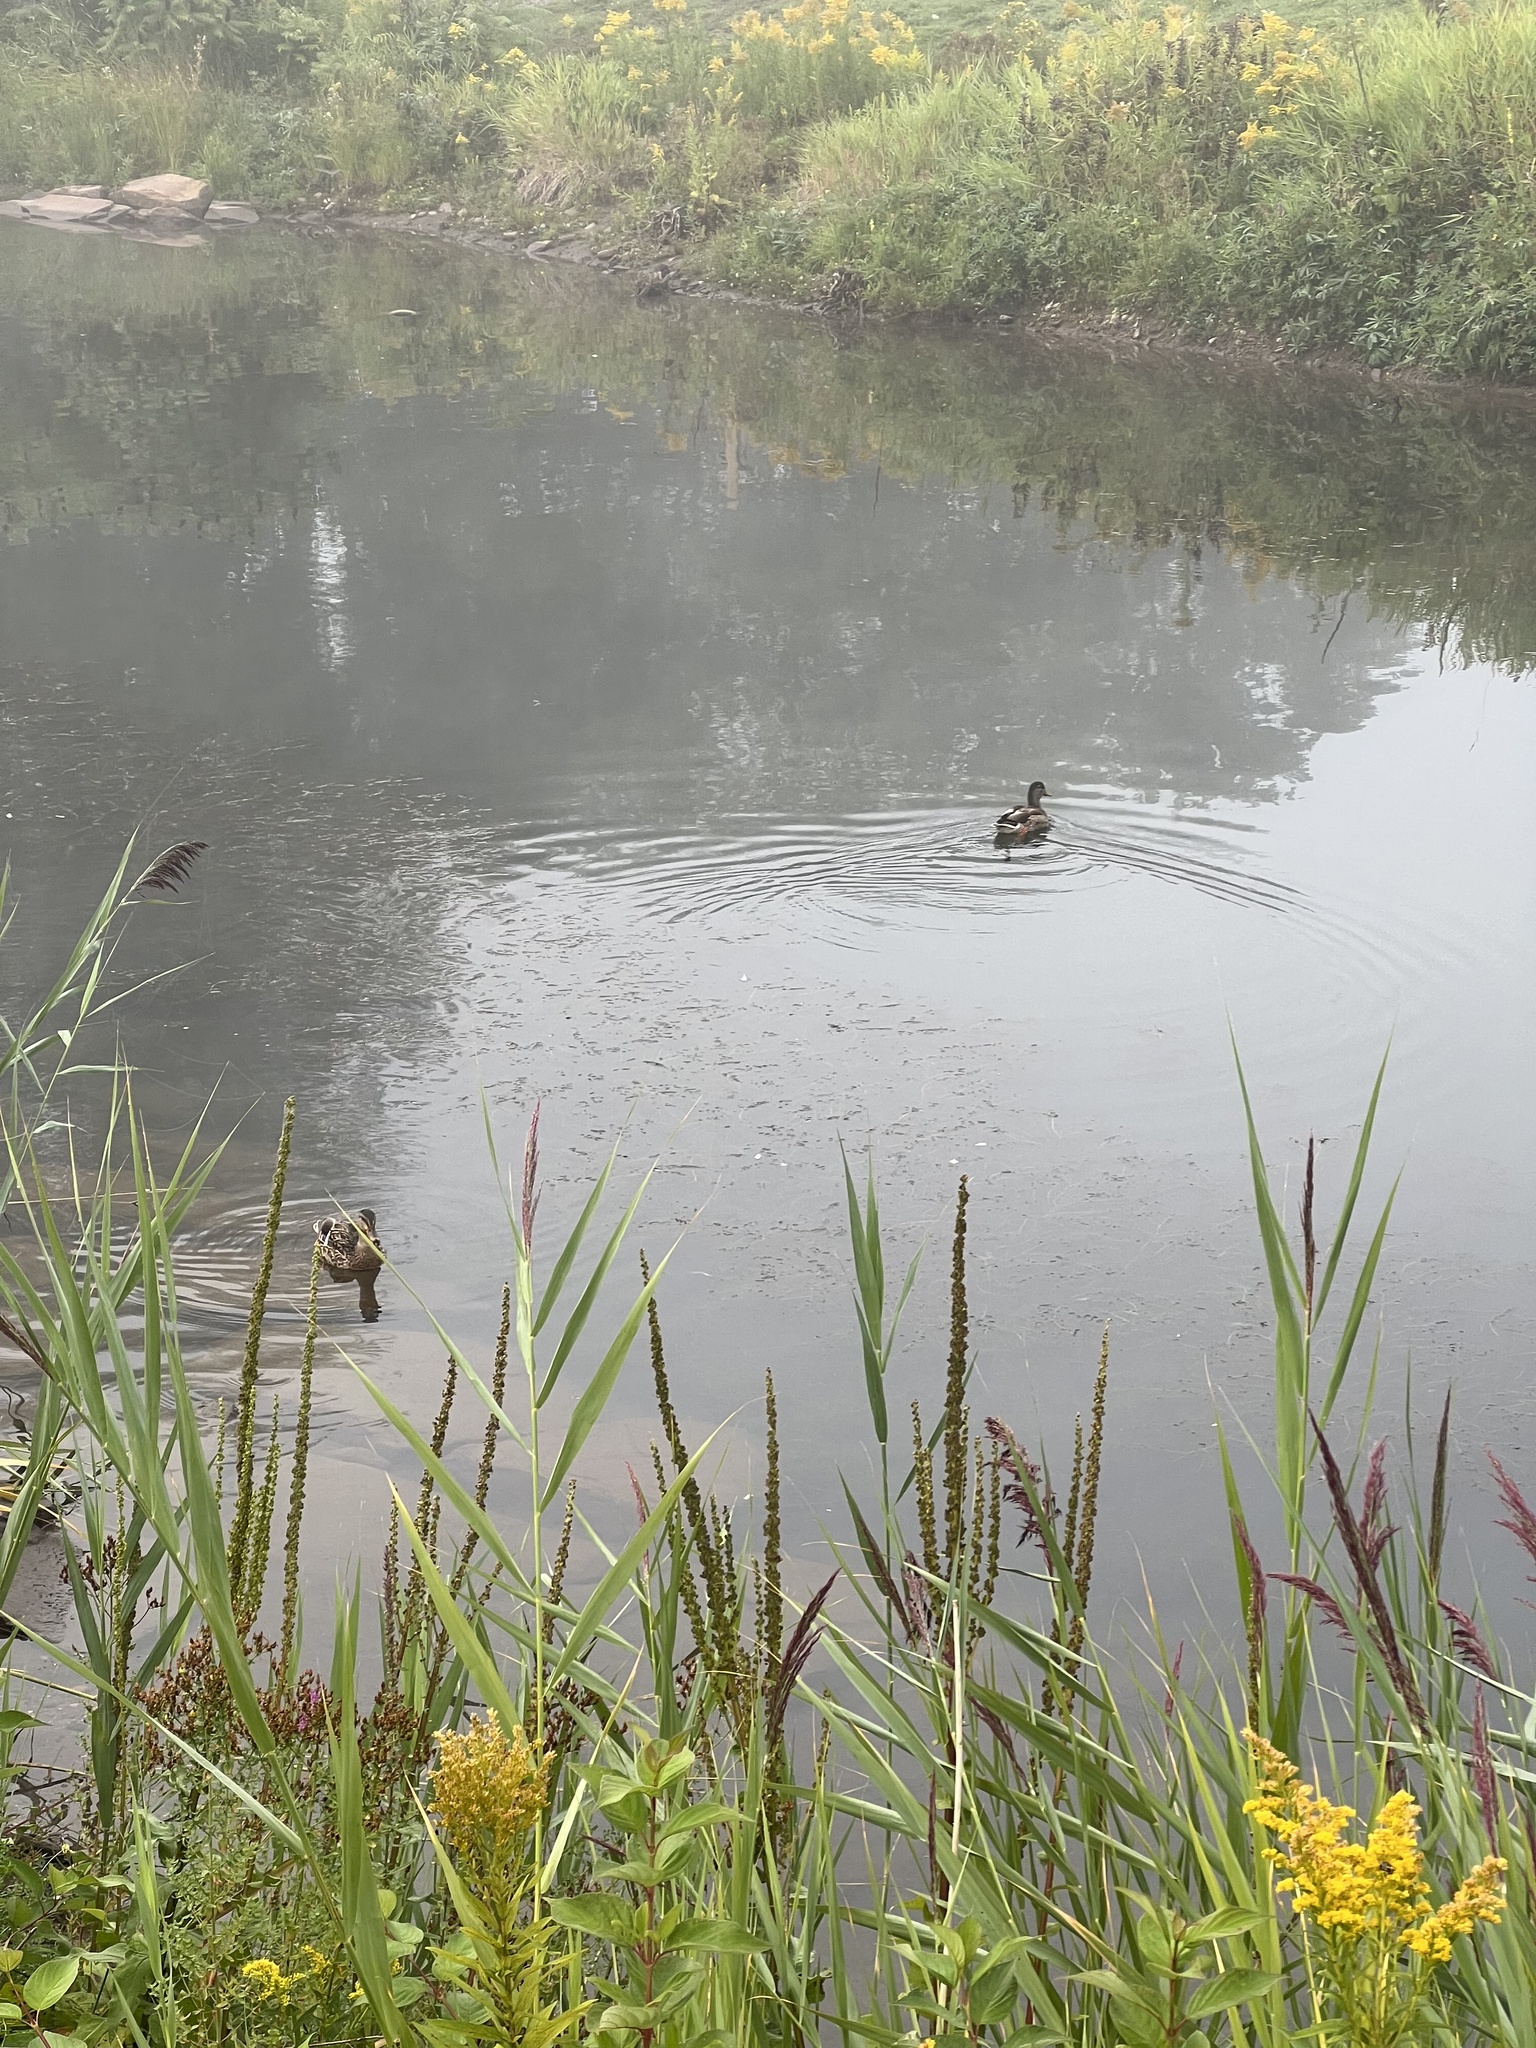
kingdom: Animalia
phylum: Chordata
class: Aves
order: Anseriformes
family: Anatidae
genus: Anas
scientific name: Anas platyrhynchos
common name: Mallard
